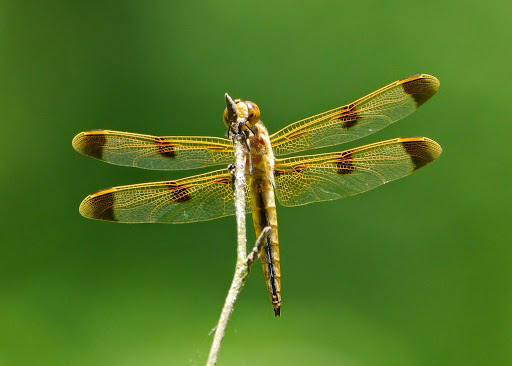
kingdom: Animalia
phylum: Arthropoda
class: Insecta
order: Odonata
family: Libellulidae
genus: Libellula
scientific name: Libellula semifasciata
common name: Painted skimmer
